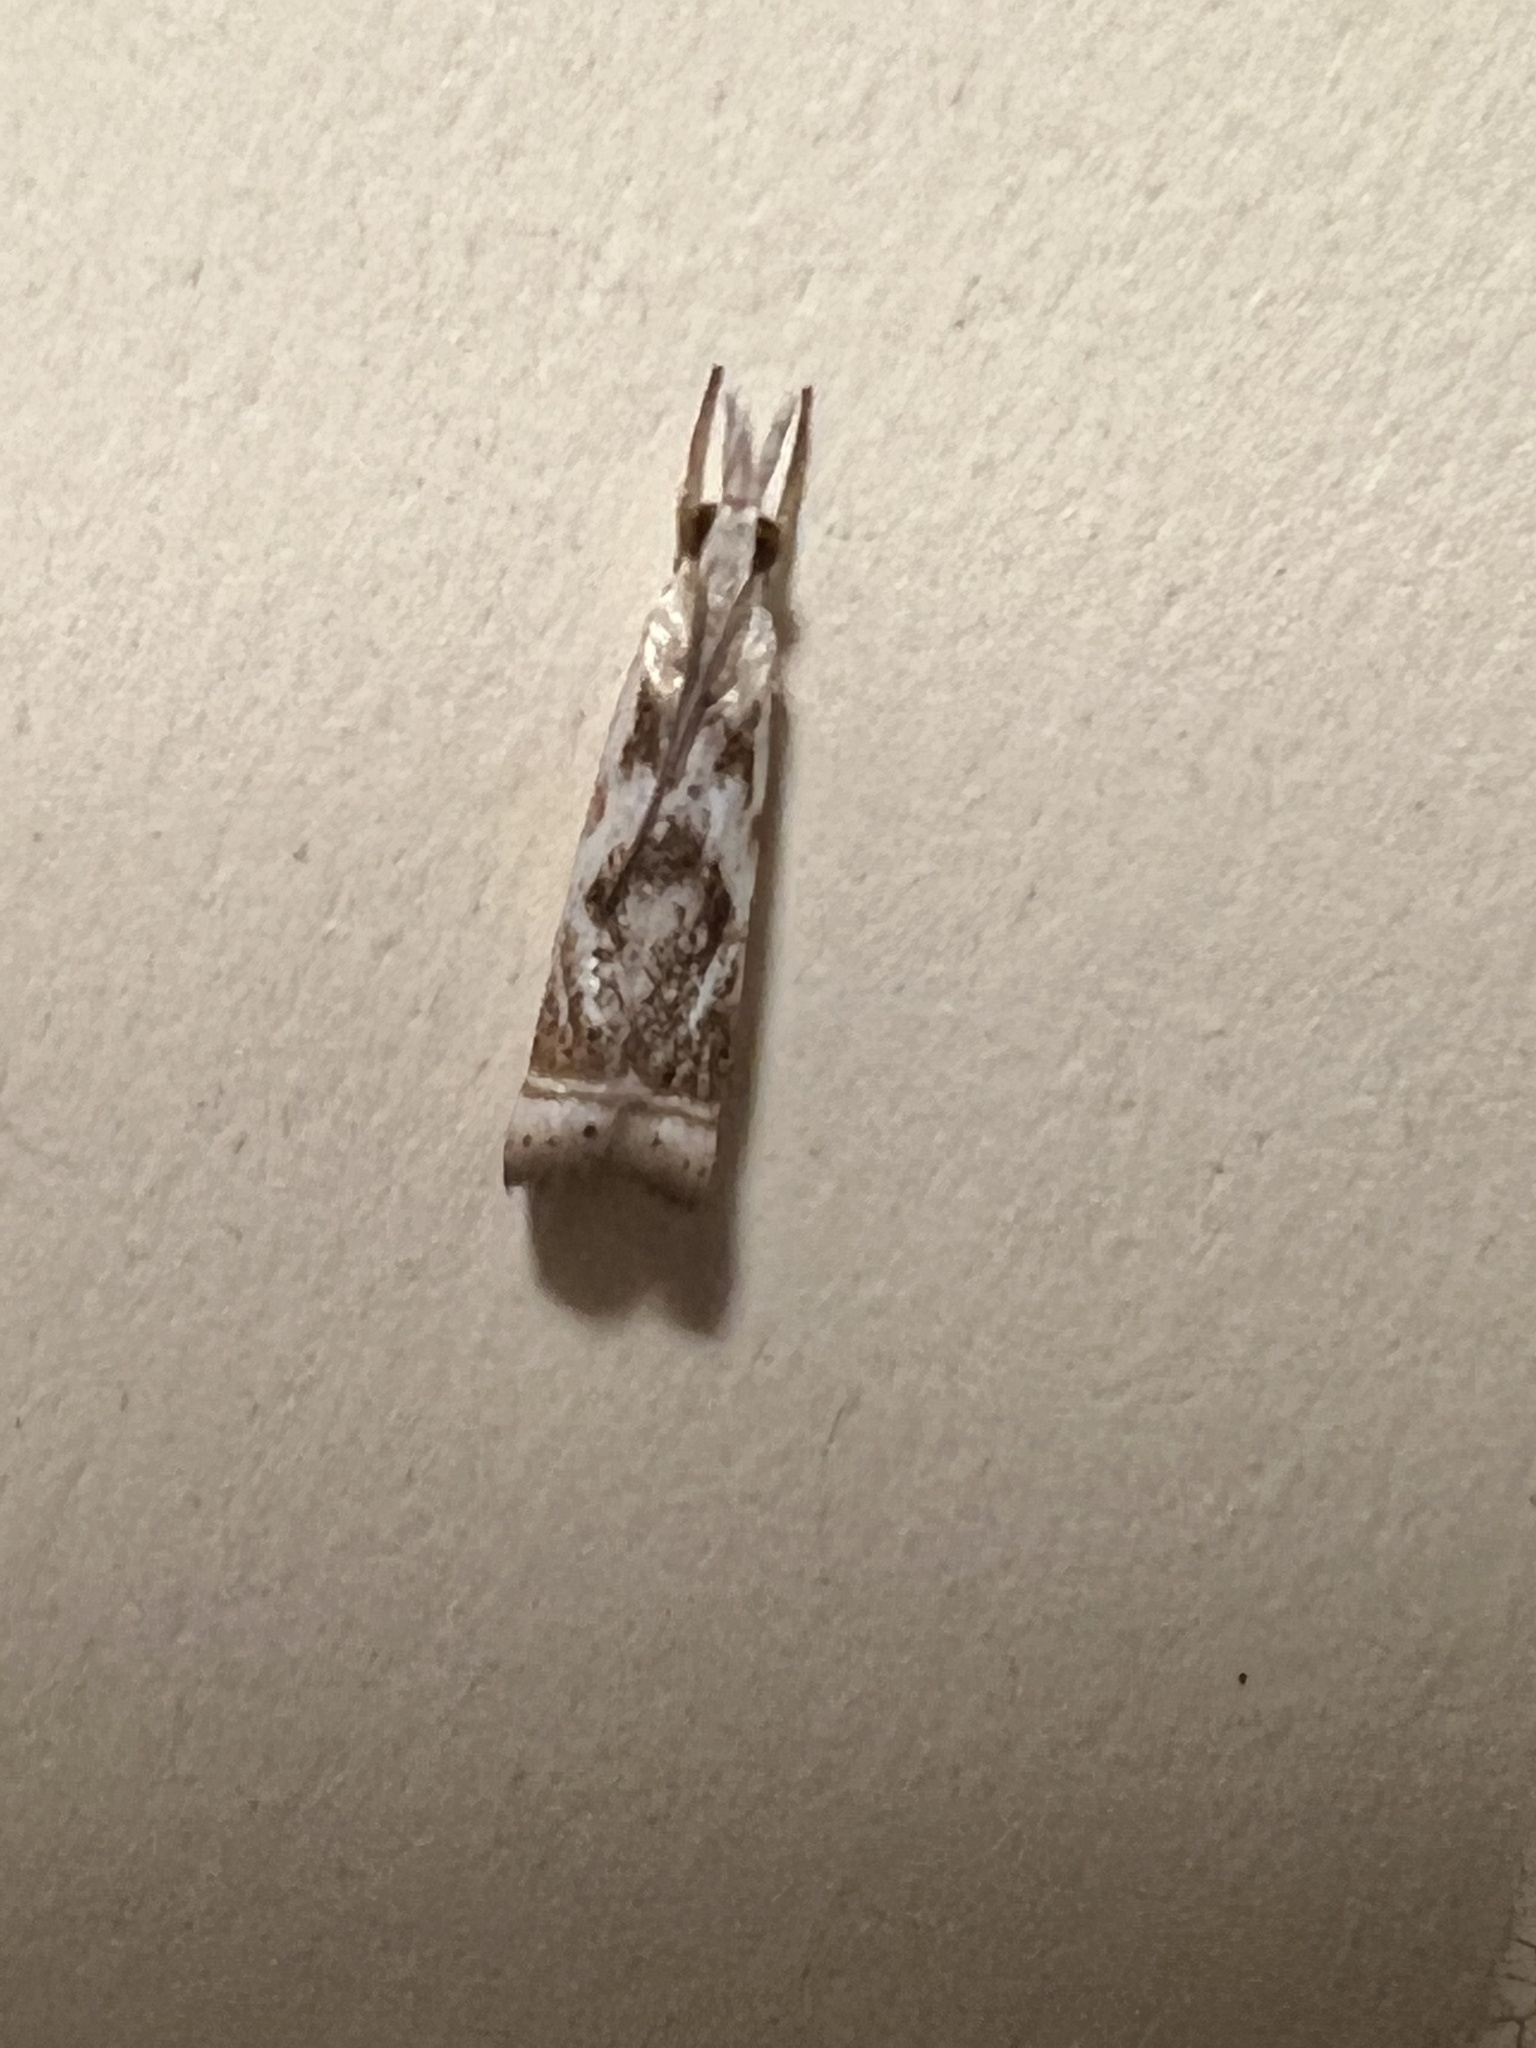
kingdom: Animalia
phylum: Arthropoda
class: Insecta
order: Lepidoptera
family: Crambidae
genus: Microcrambus
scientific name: Microcrambus elegans
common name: Elegant grass-veneer
